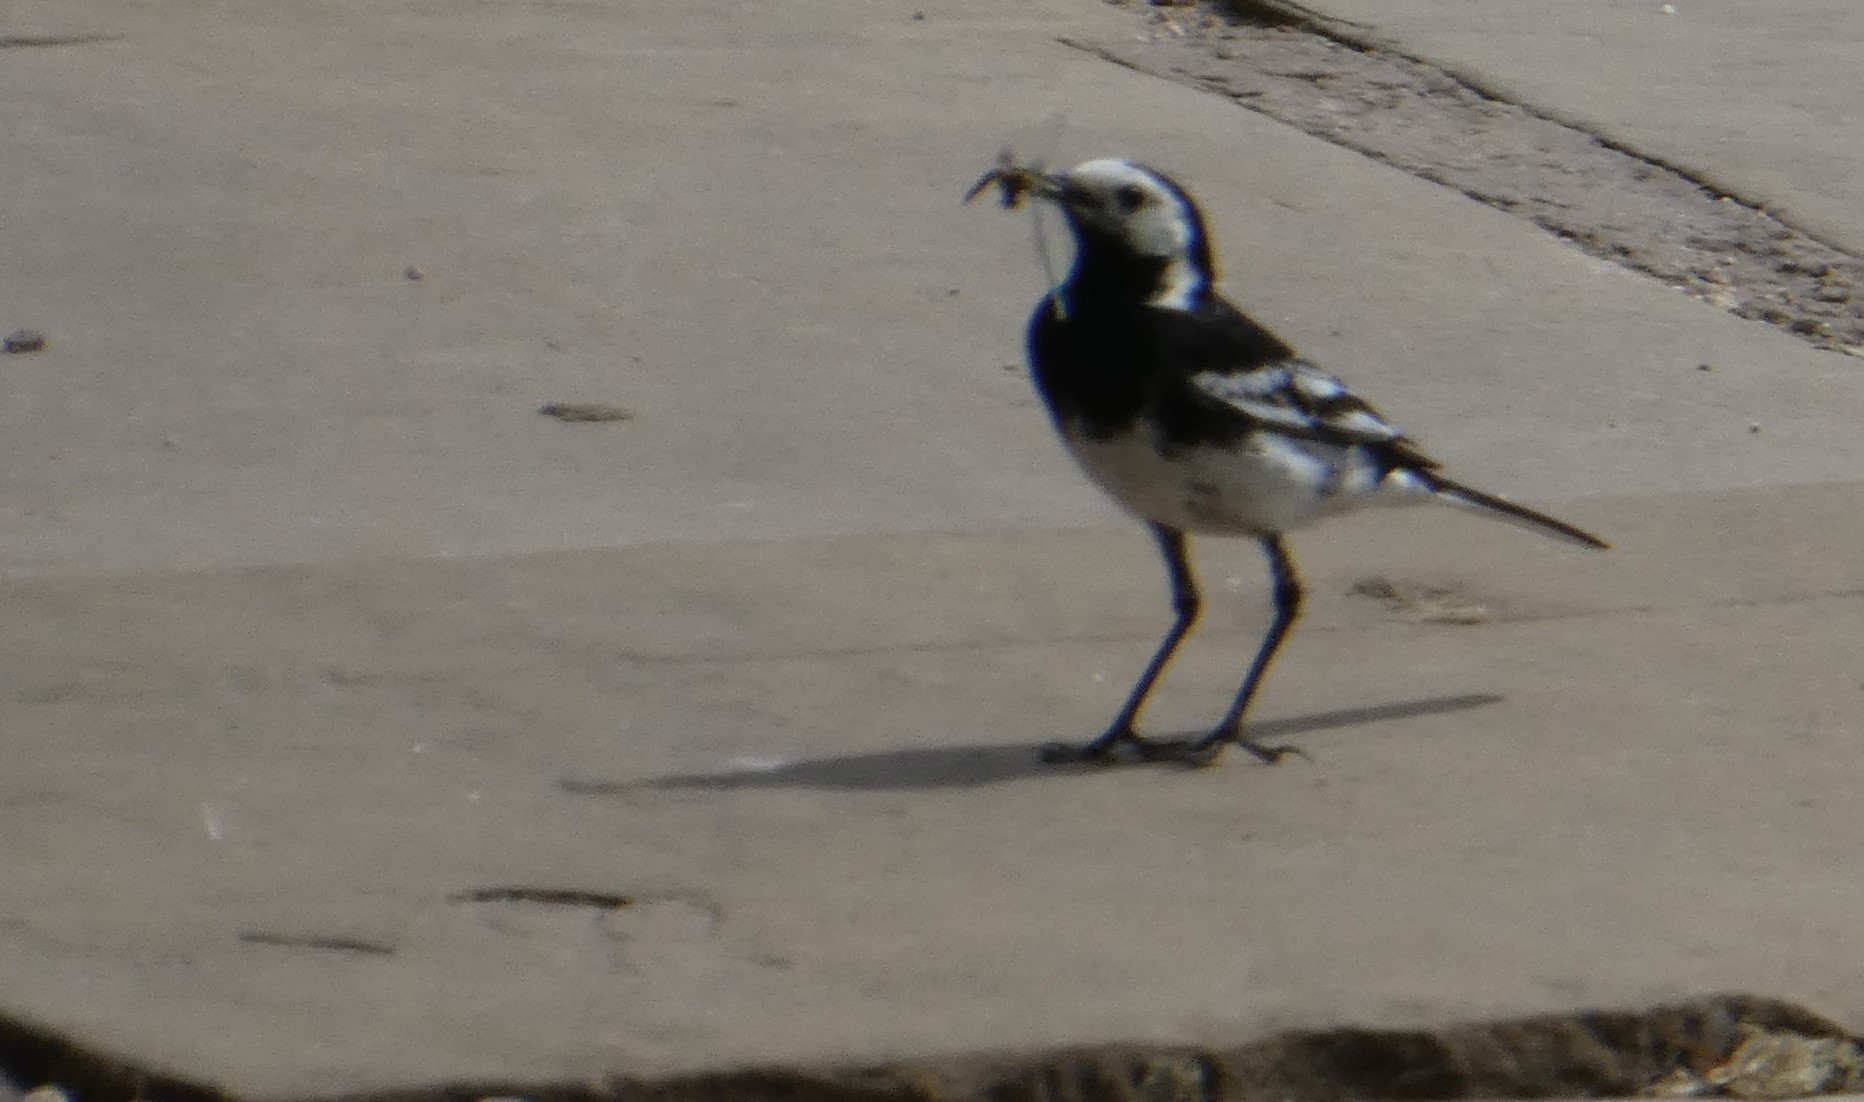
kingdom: Animalia
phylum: Chordata
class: Aves
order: Passeriformes
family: Motacillidae
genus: Motacilla
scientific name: Motacilla alba
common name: White wagtail
